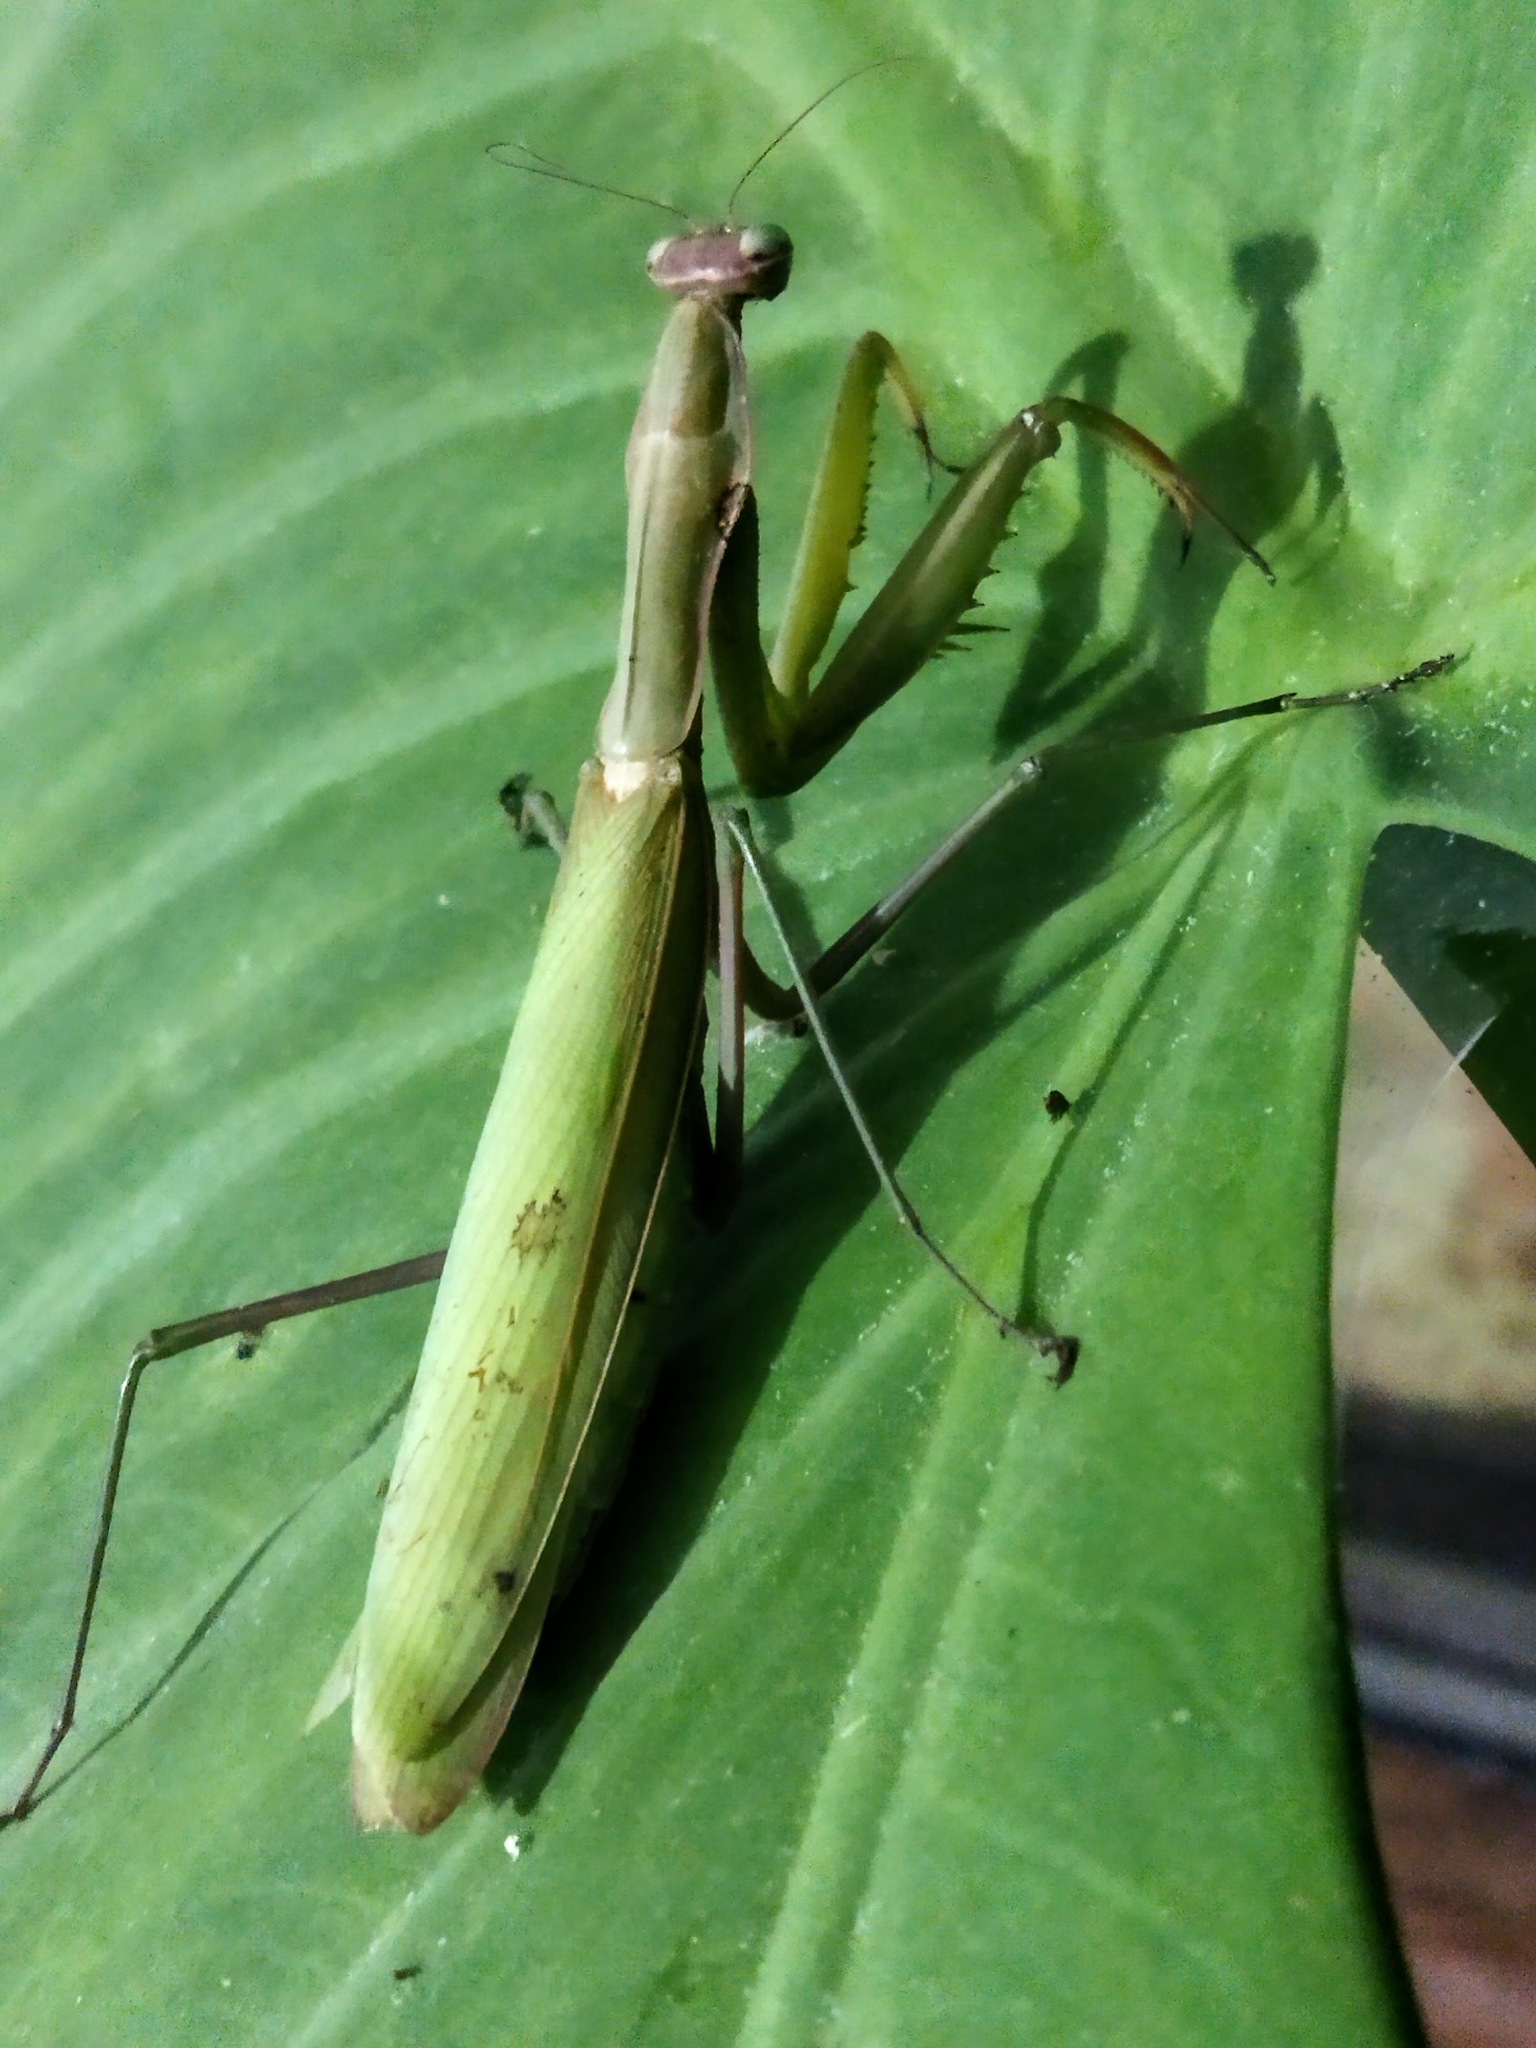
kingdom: Animalia
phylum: Arthropoda
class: Insecta
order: Mantodea
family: Mantidae
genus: Mantis
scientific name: Mantis religiosa
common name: Praying mantis
